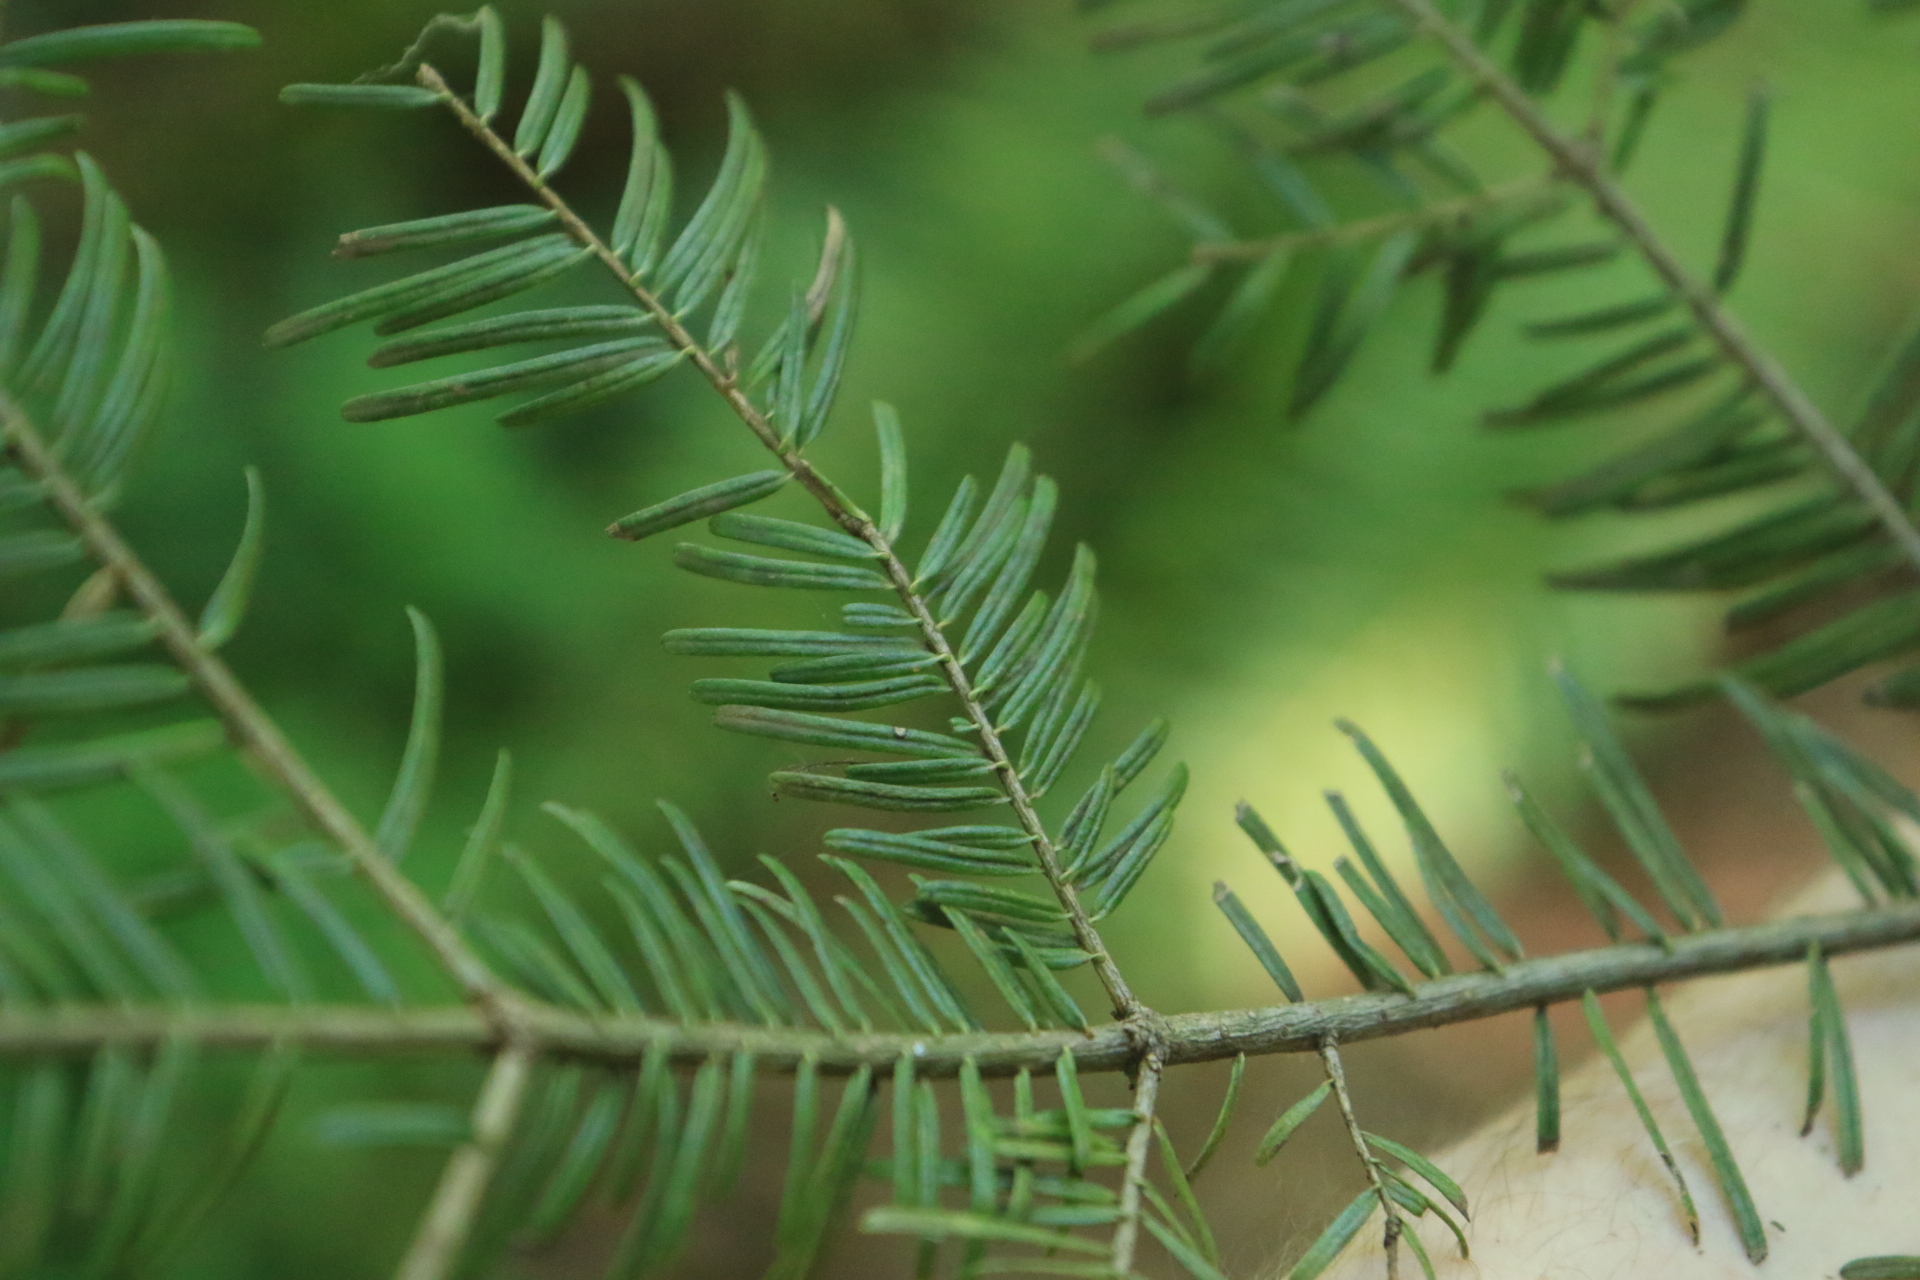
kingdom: Plantae
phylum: Tracheophyta
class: Pinopsida
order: Pinales
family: Pinaceae
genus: Abies
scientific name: Abies grandis
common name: Giant fir
